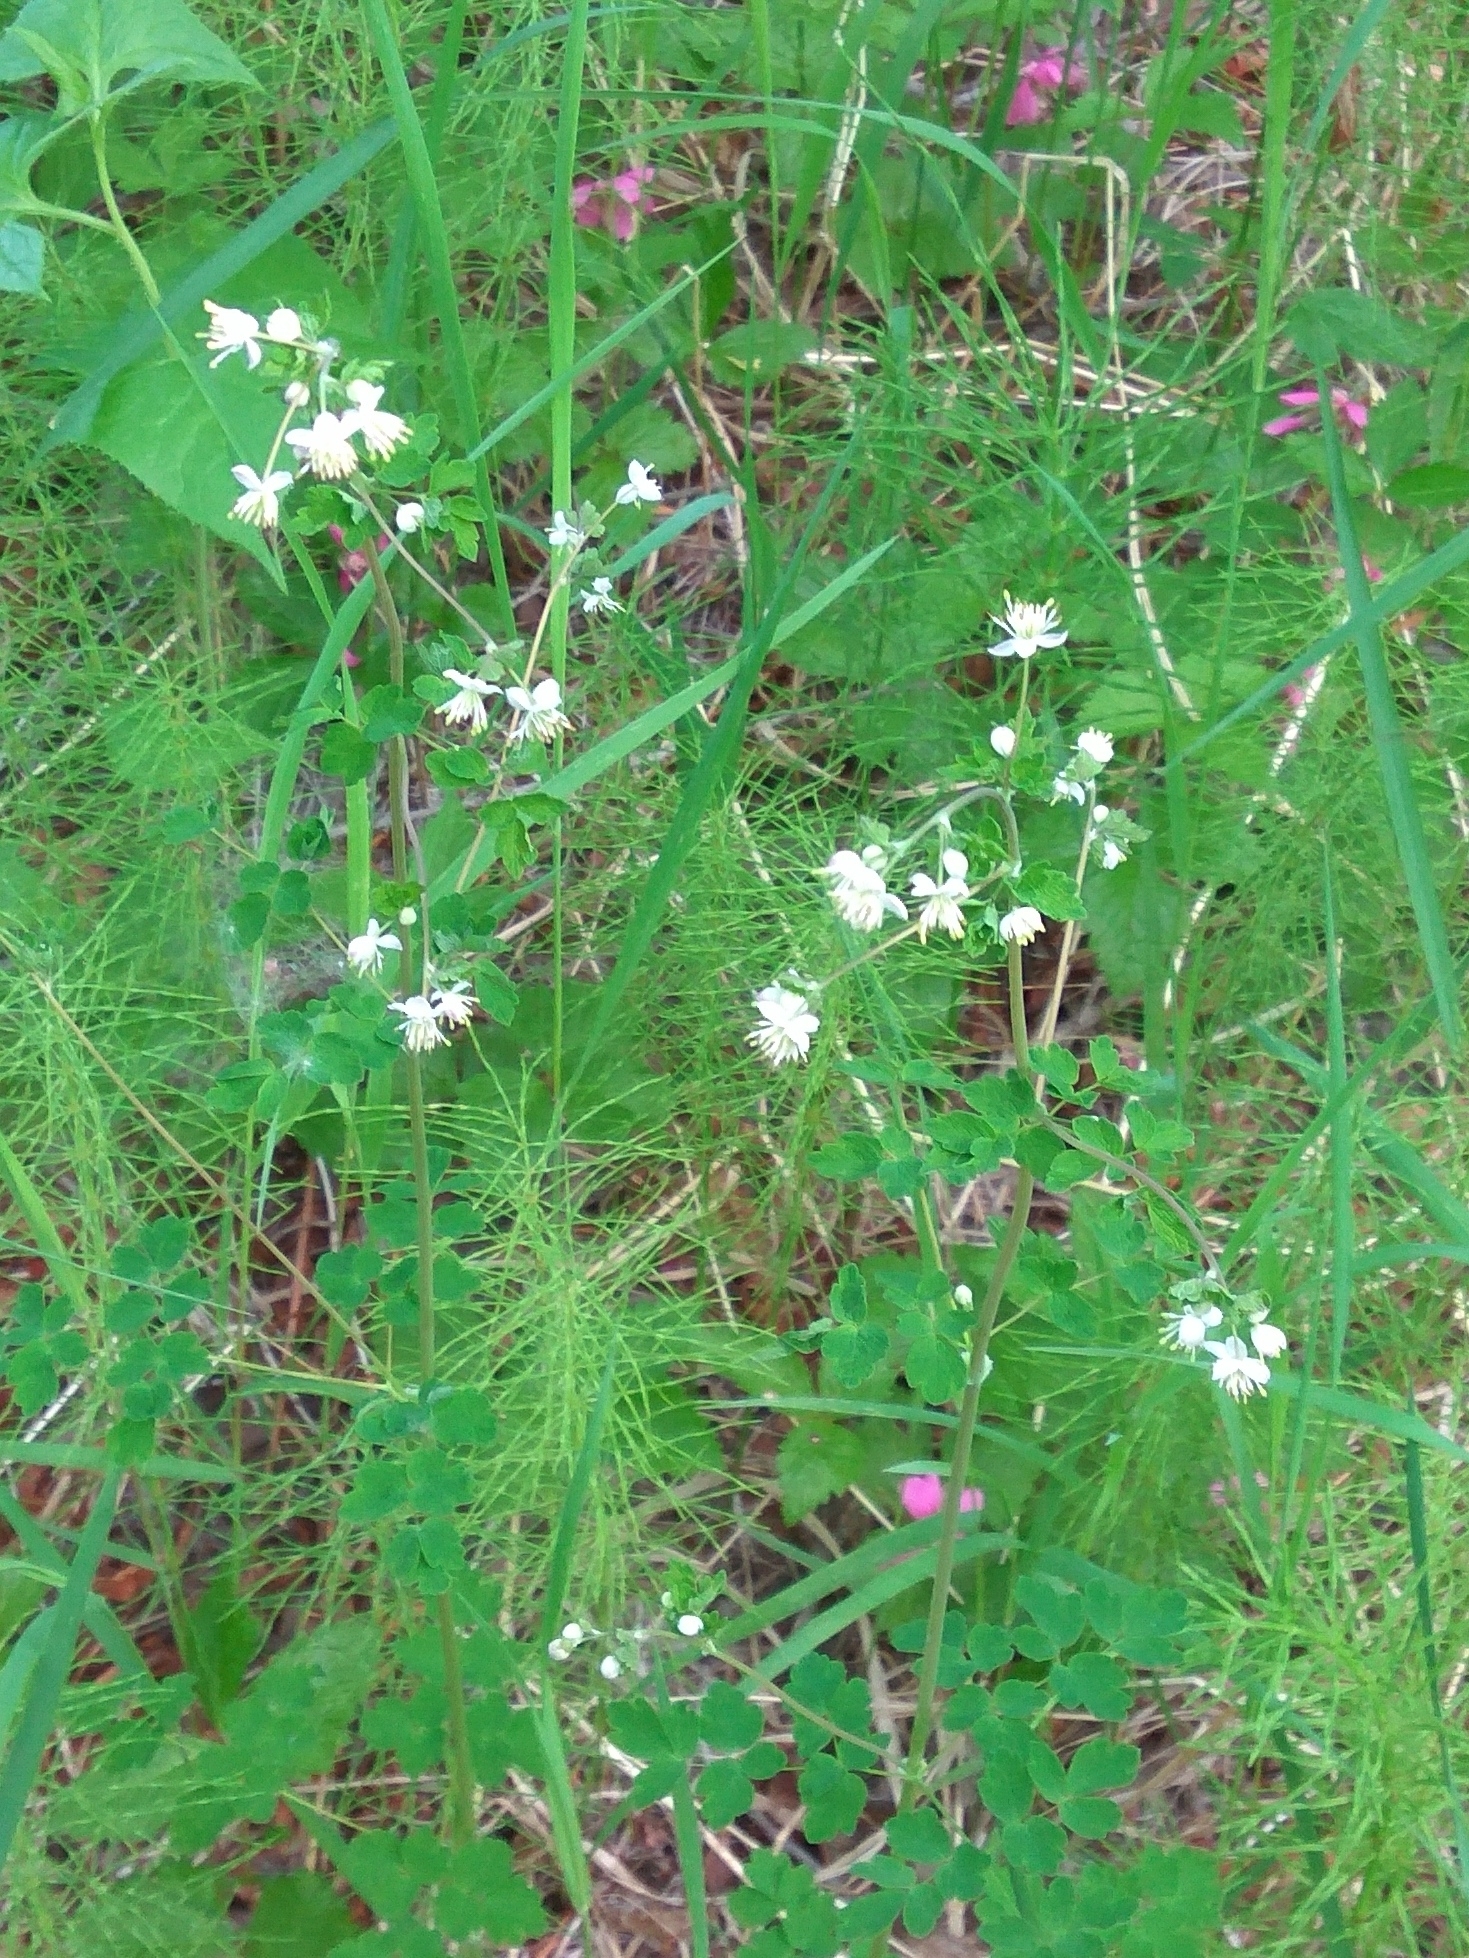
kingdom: Plantae
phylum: Tracheophyta
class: Magnoliopsida
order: Ranunculales
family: Ranunculaceae
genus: Thalictrum
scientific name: Thalictrum sparsiflorum
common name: Mountain meadow-rue
